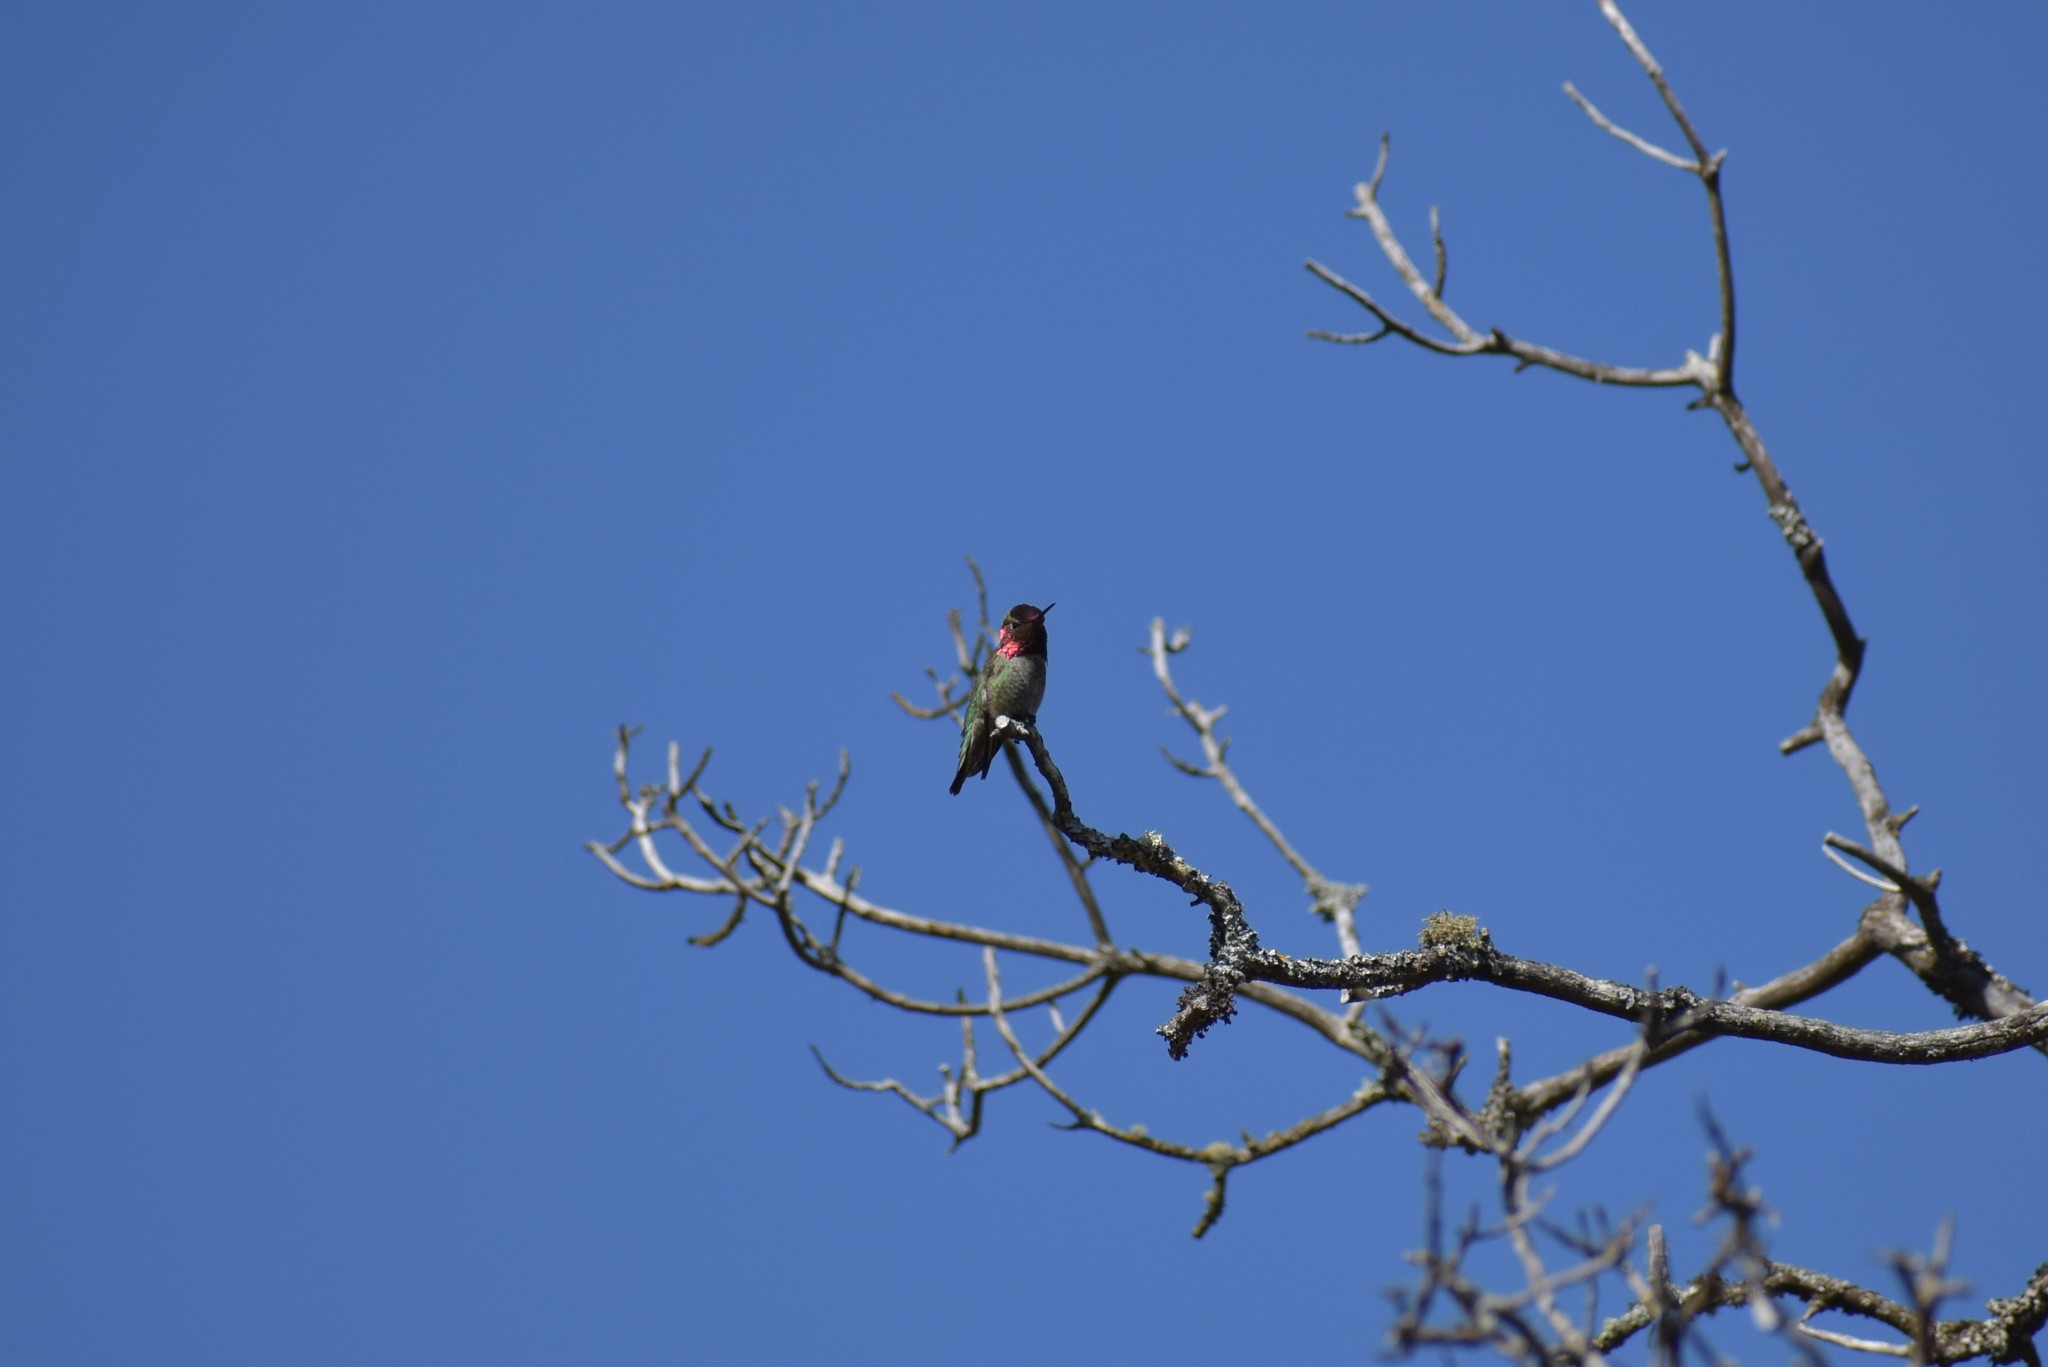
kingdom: Animalia
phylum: Chordata
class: Aves
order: Apodiformes
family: Trochilidae
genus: Calypte
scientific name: Calypte anna
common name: Anna's hummingbird
